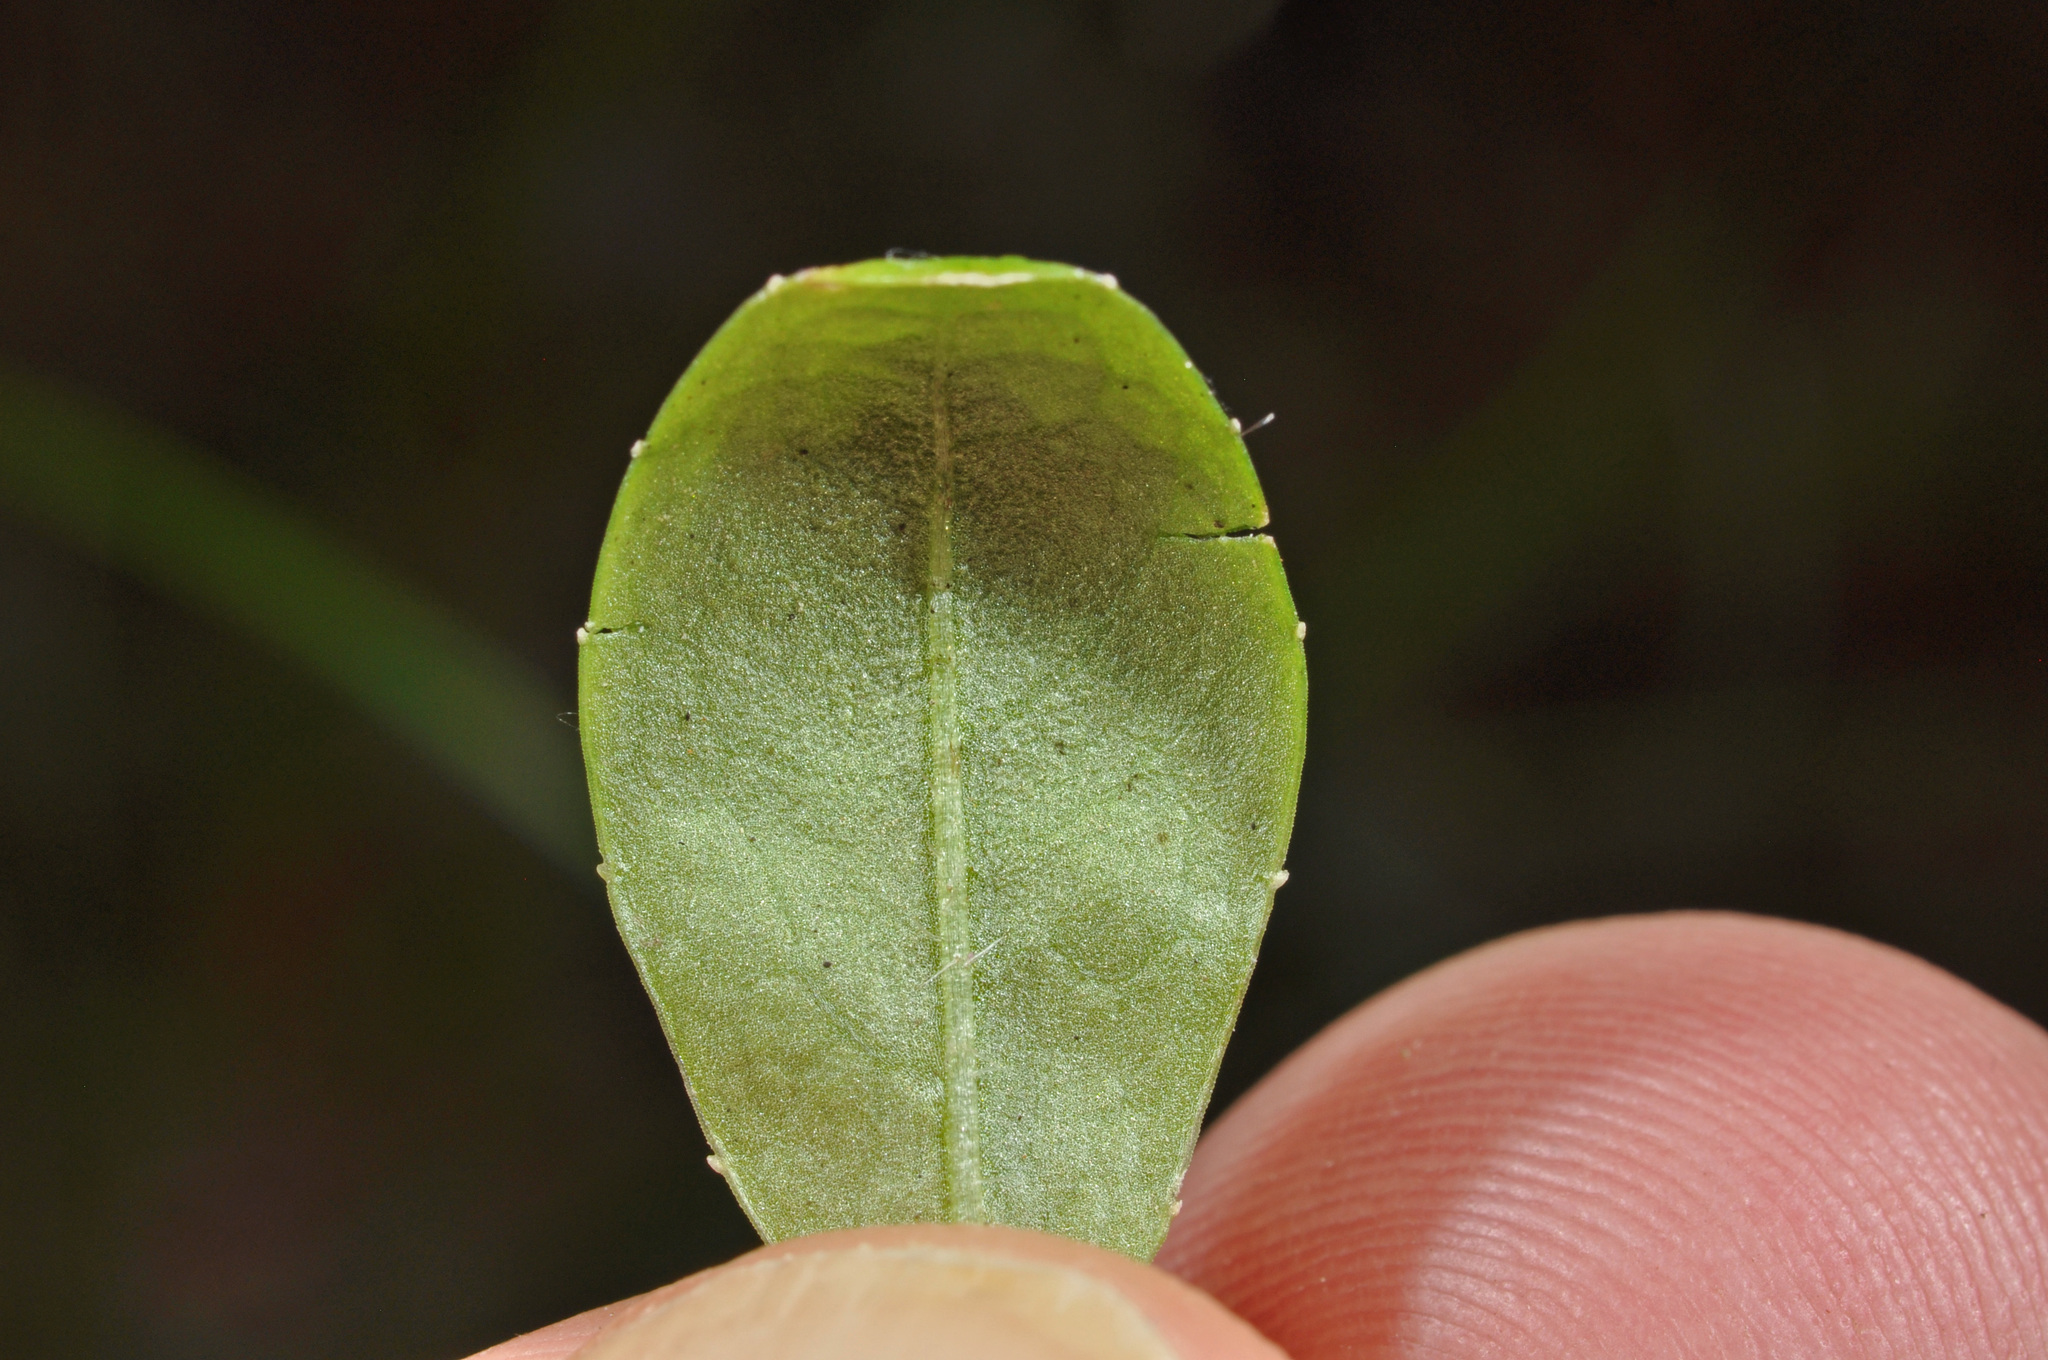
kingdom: Plantae
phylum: Tracheophyta
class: Magnoliopsida
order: Asterales
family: Campanulaceae
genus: Wahlenbergia
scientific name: Wahlenbergia violacea
